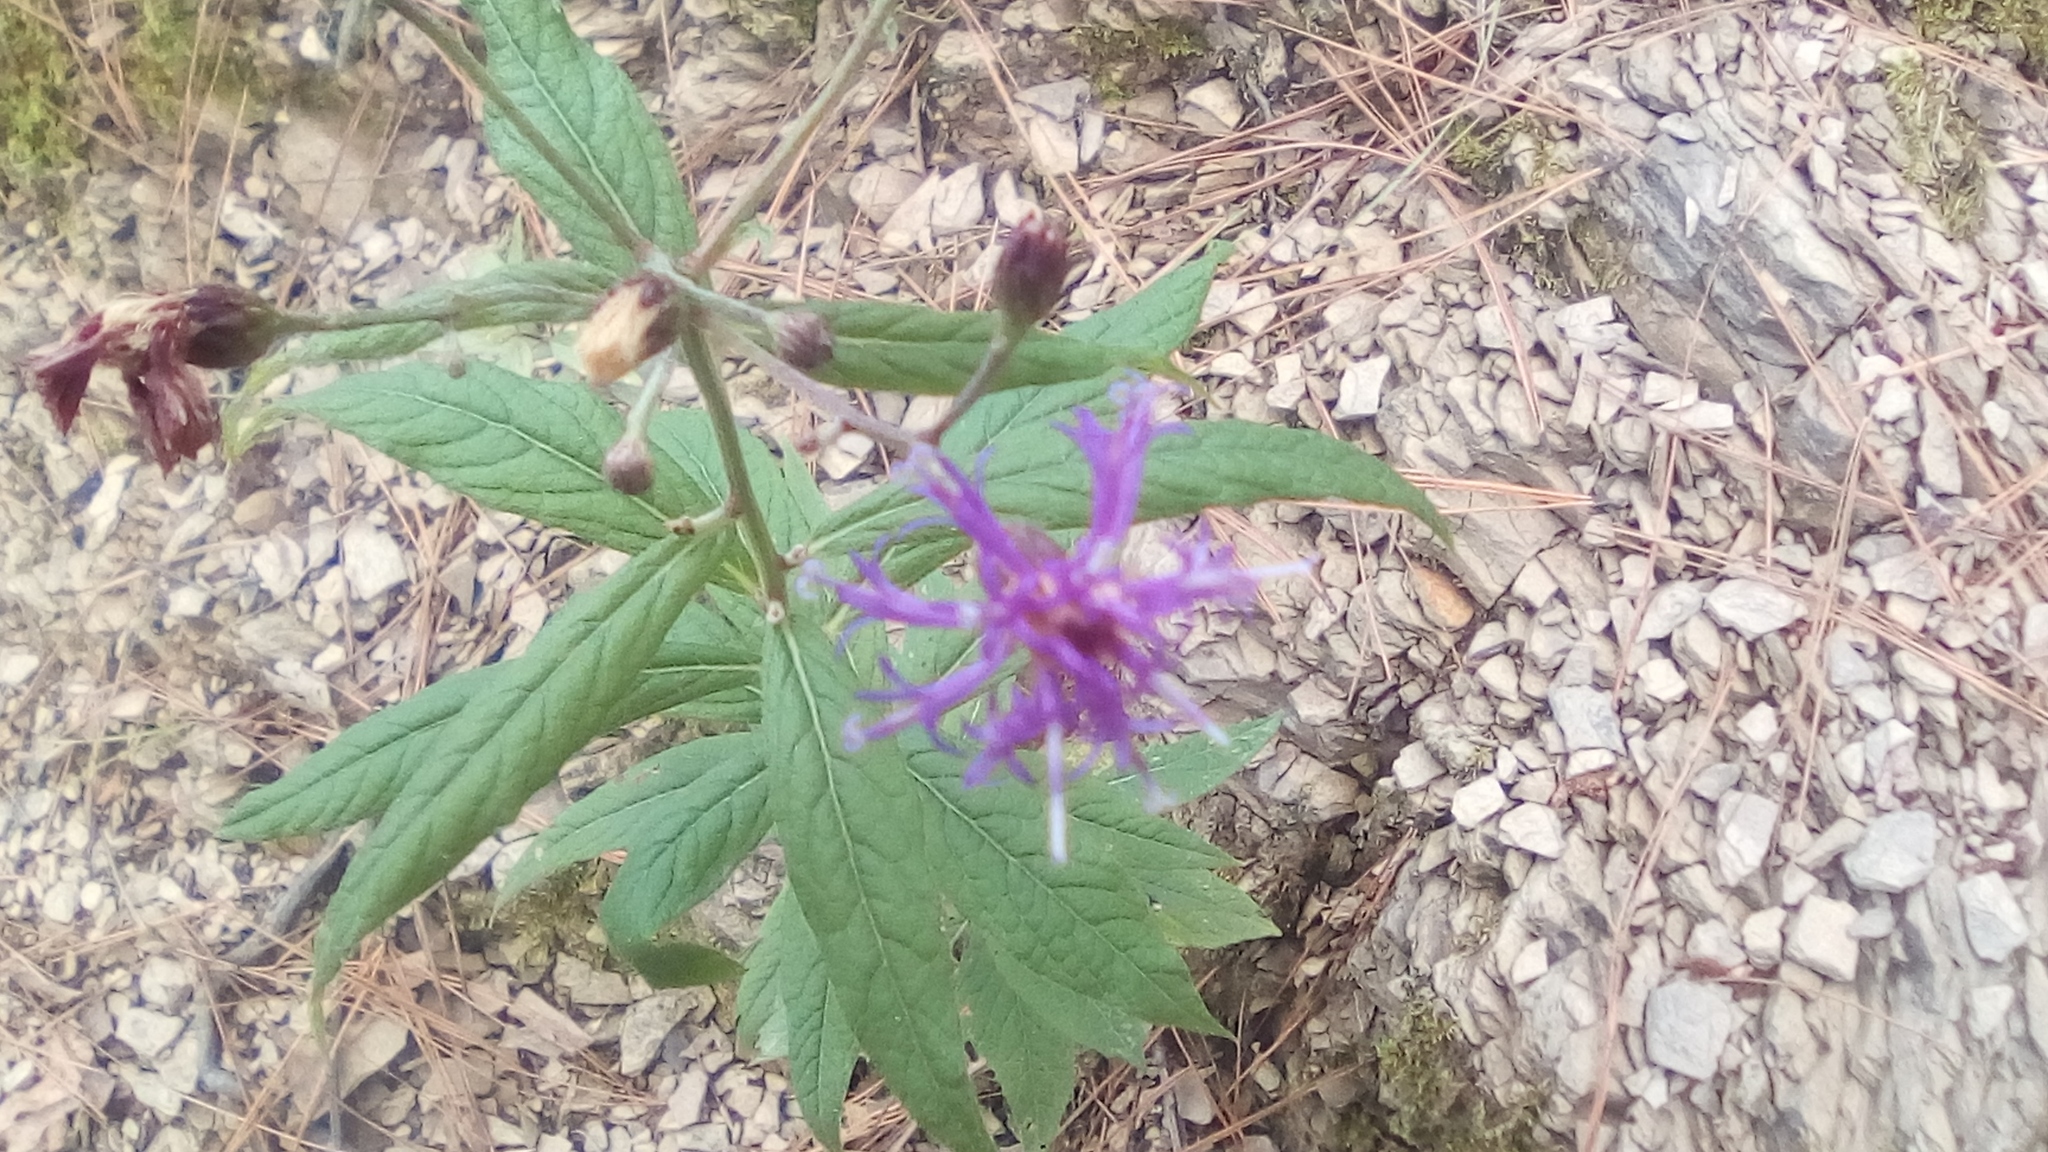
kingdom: Plantae
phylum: Tracheophyta
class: Magnoliopsida
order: Asterales
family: Asteraceae
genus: Vernonia
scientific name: Vernonia greggii
